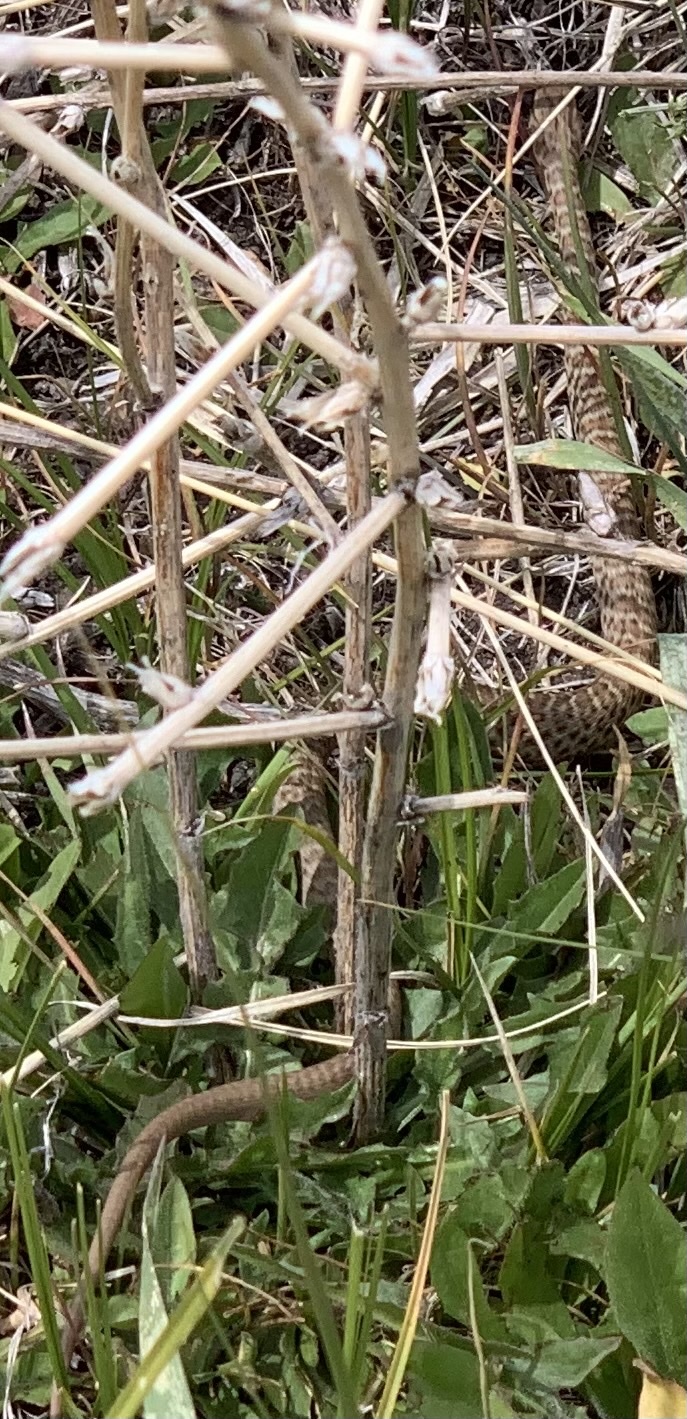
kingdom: Animalia
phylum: Chordata
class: Squamata
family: Colubridae
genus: Coluber
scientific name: Coluber constrictor
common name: Eastern racer
